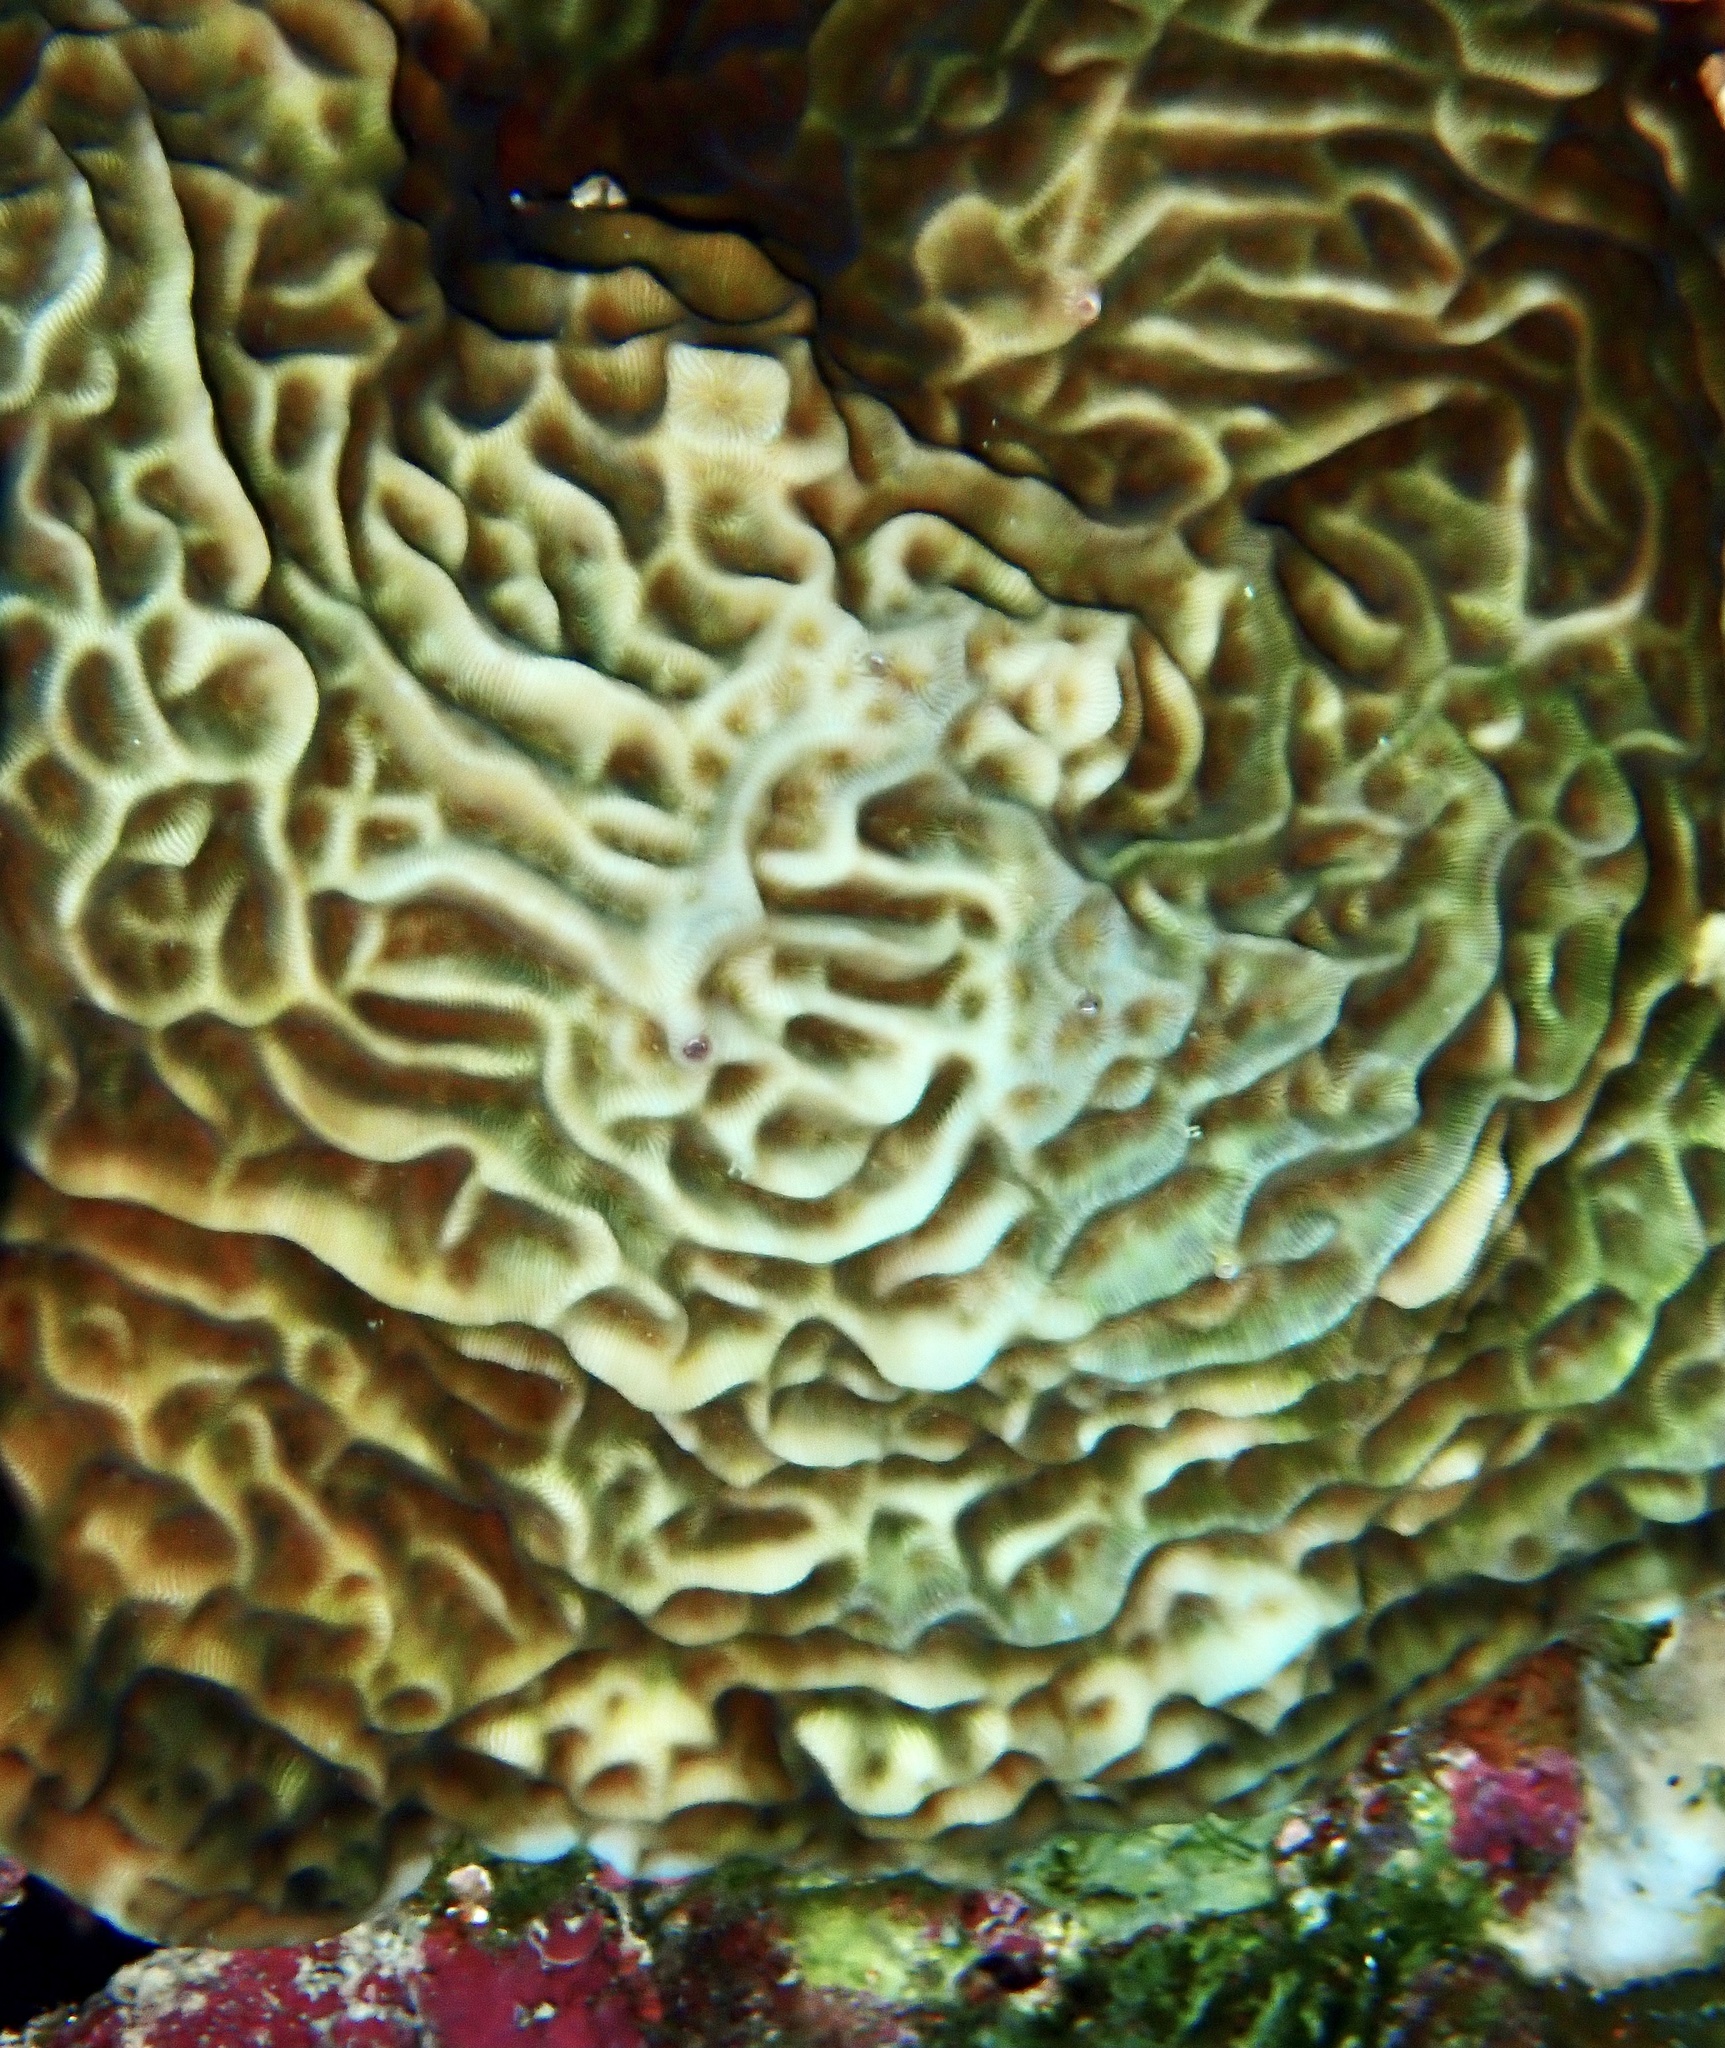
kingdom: Animalia
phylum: Cnidaria
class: Anthozoa
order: Scleractinia
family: Agariciidae
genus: Leptoseris
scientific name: Leptoseris mycetoseroides
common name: Porcelain coral
